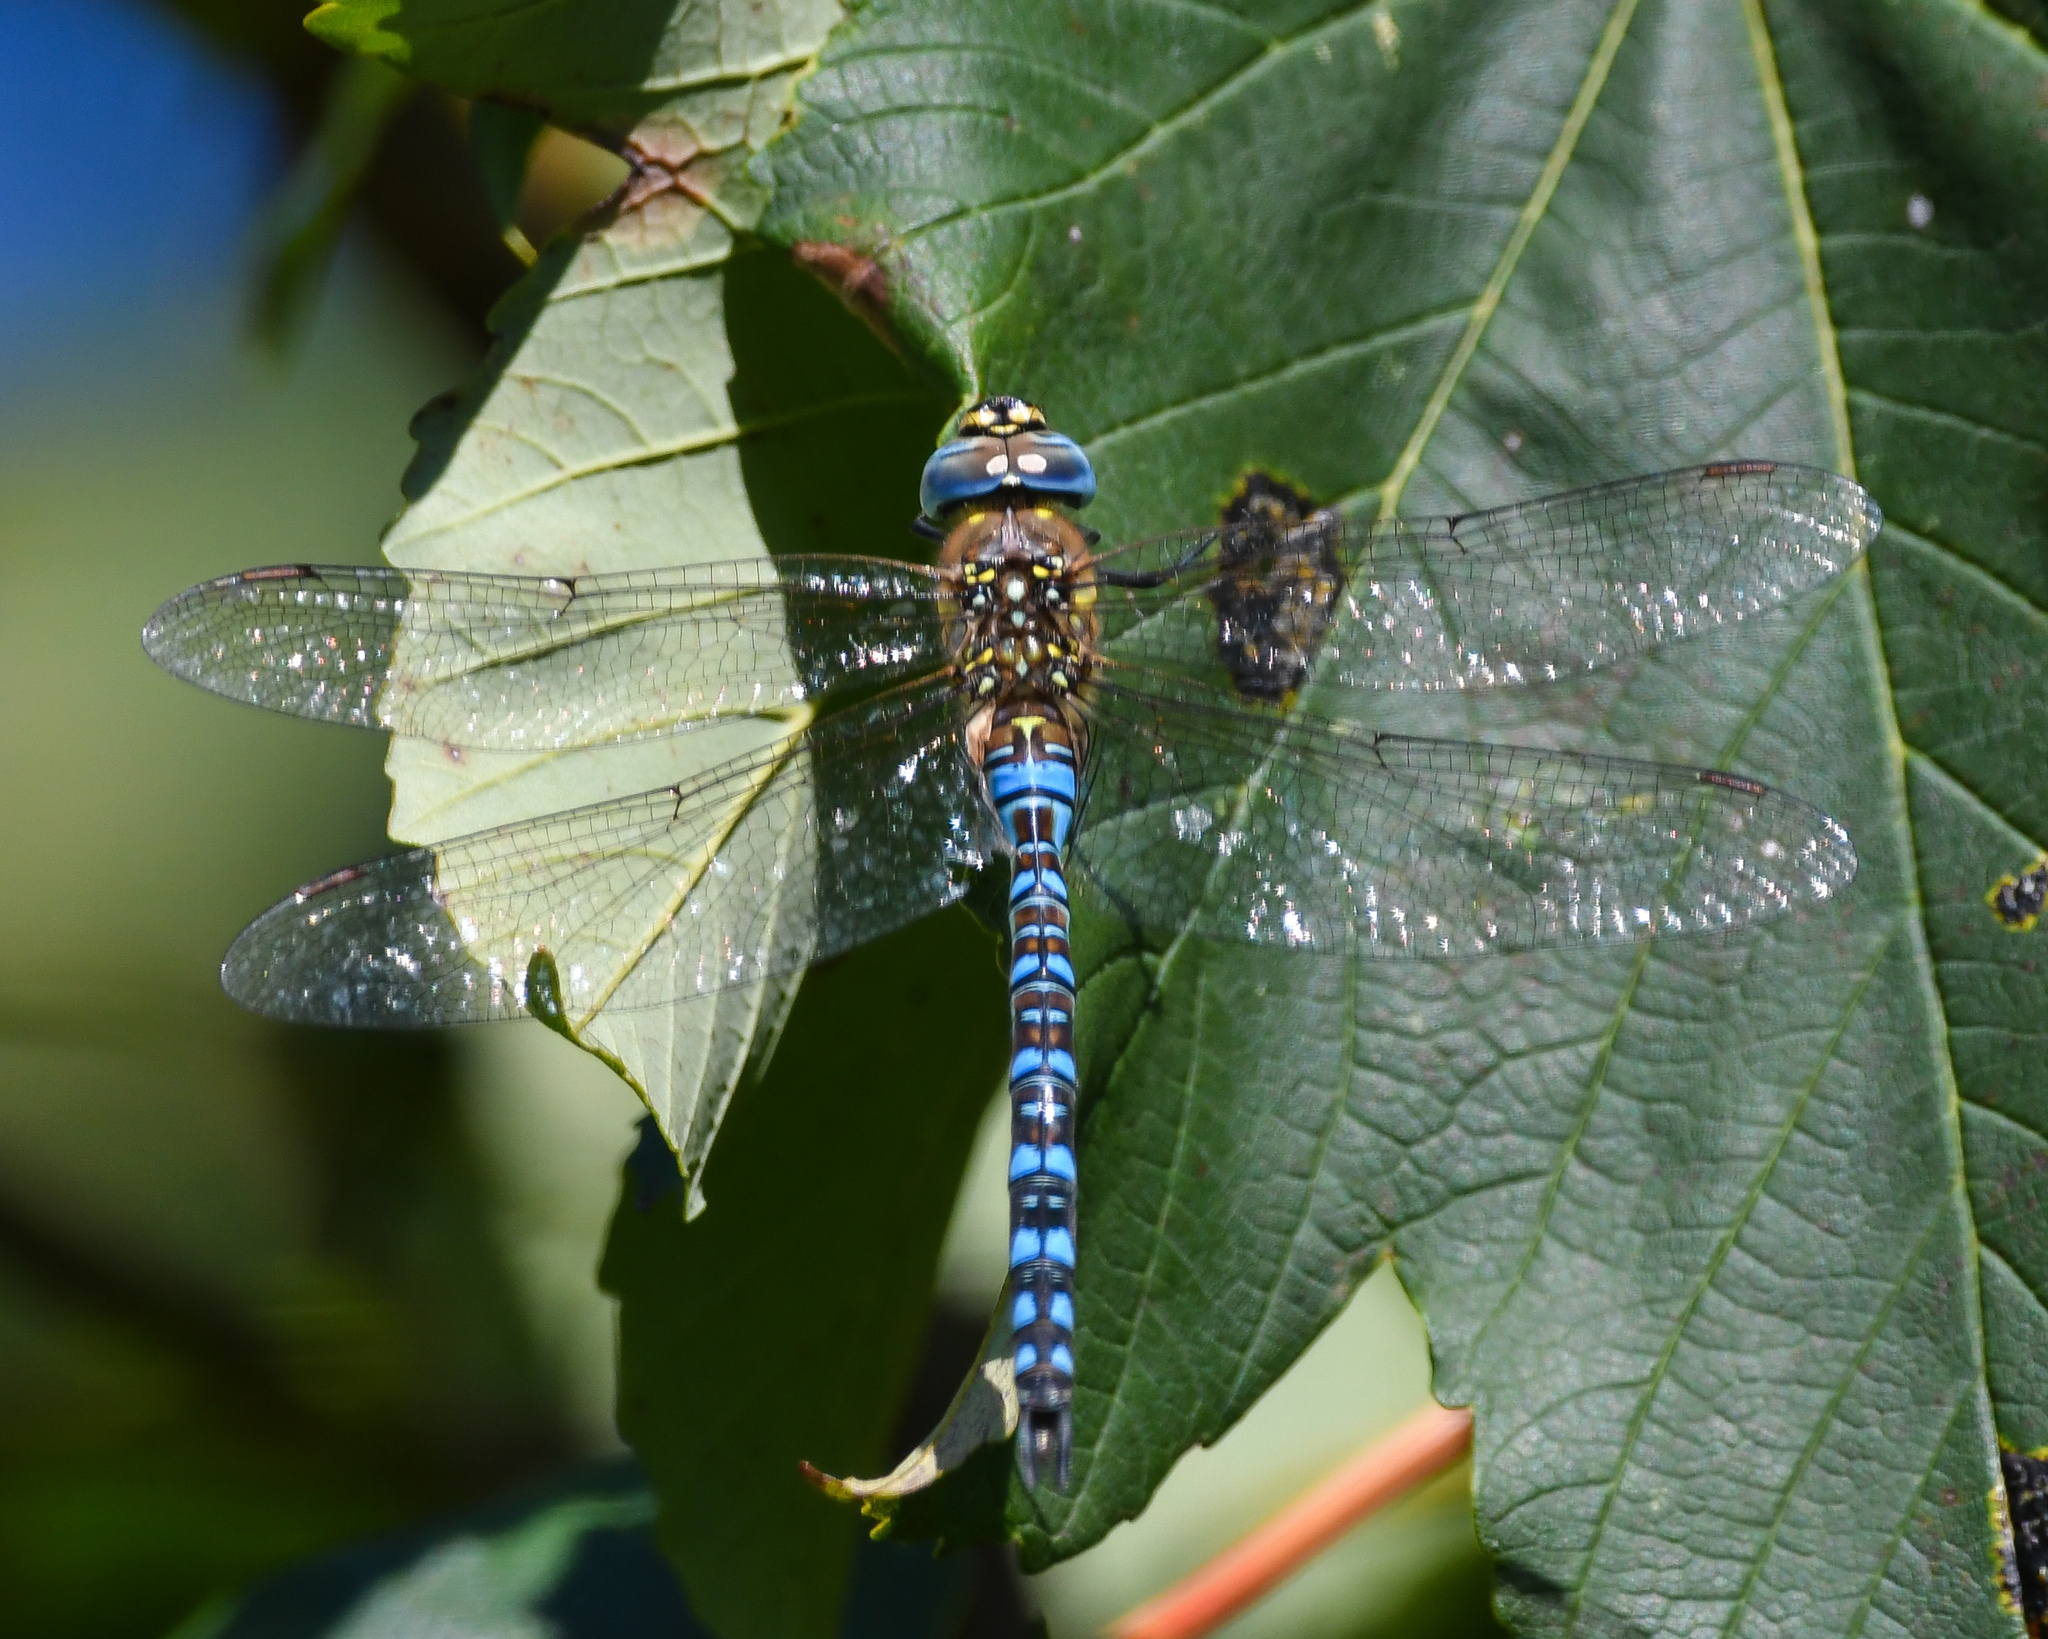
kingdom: Animalia
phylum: Arthropoda
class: Insecta
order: Odonata
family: Aeshnidae
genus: Aeshna
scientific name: Aeshna mixta
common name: Migrant hawker
